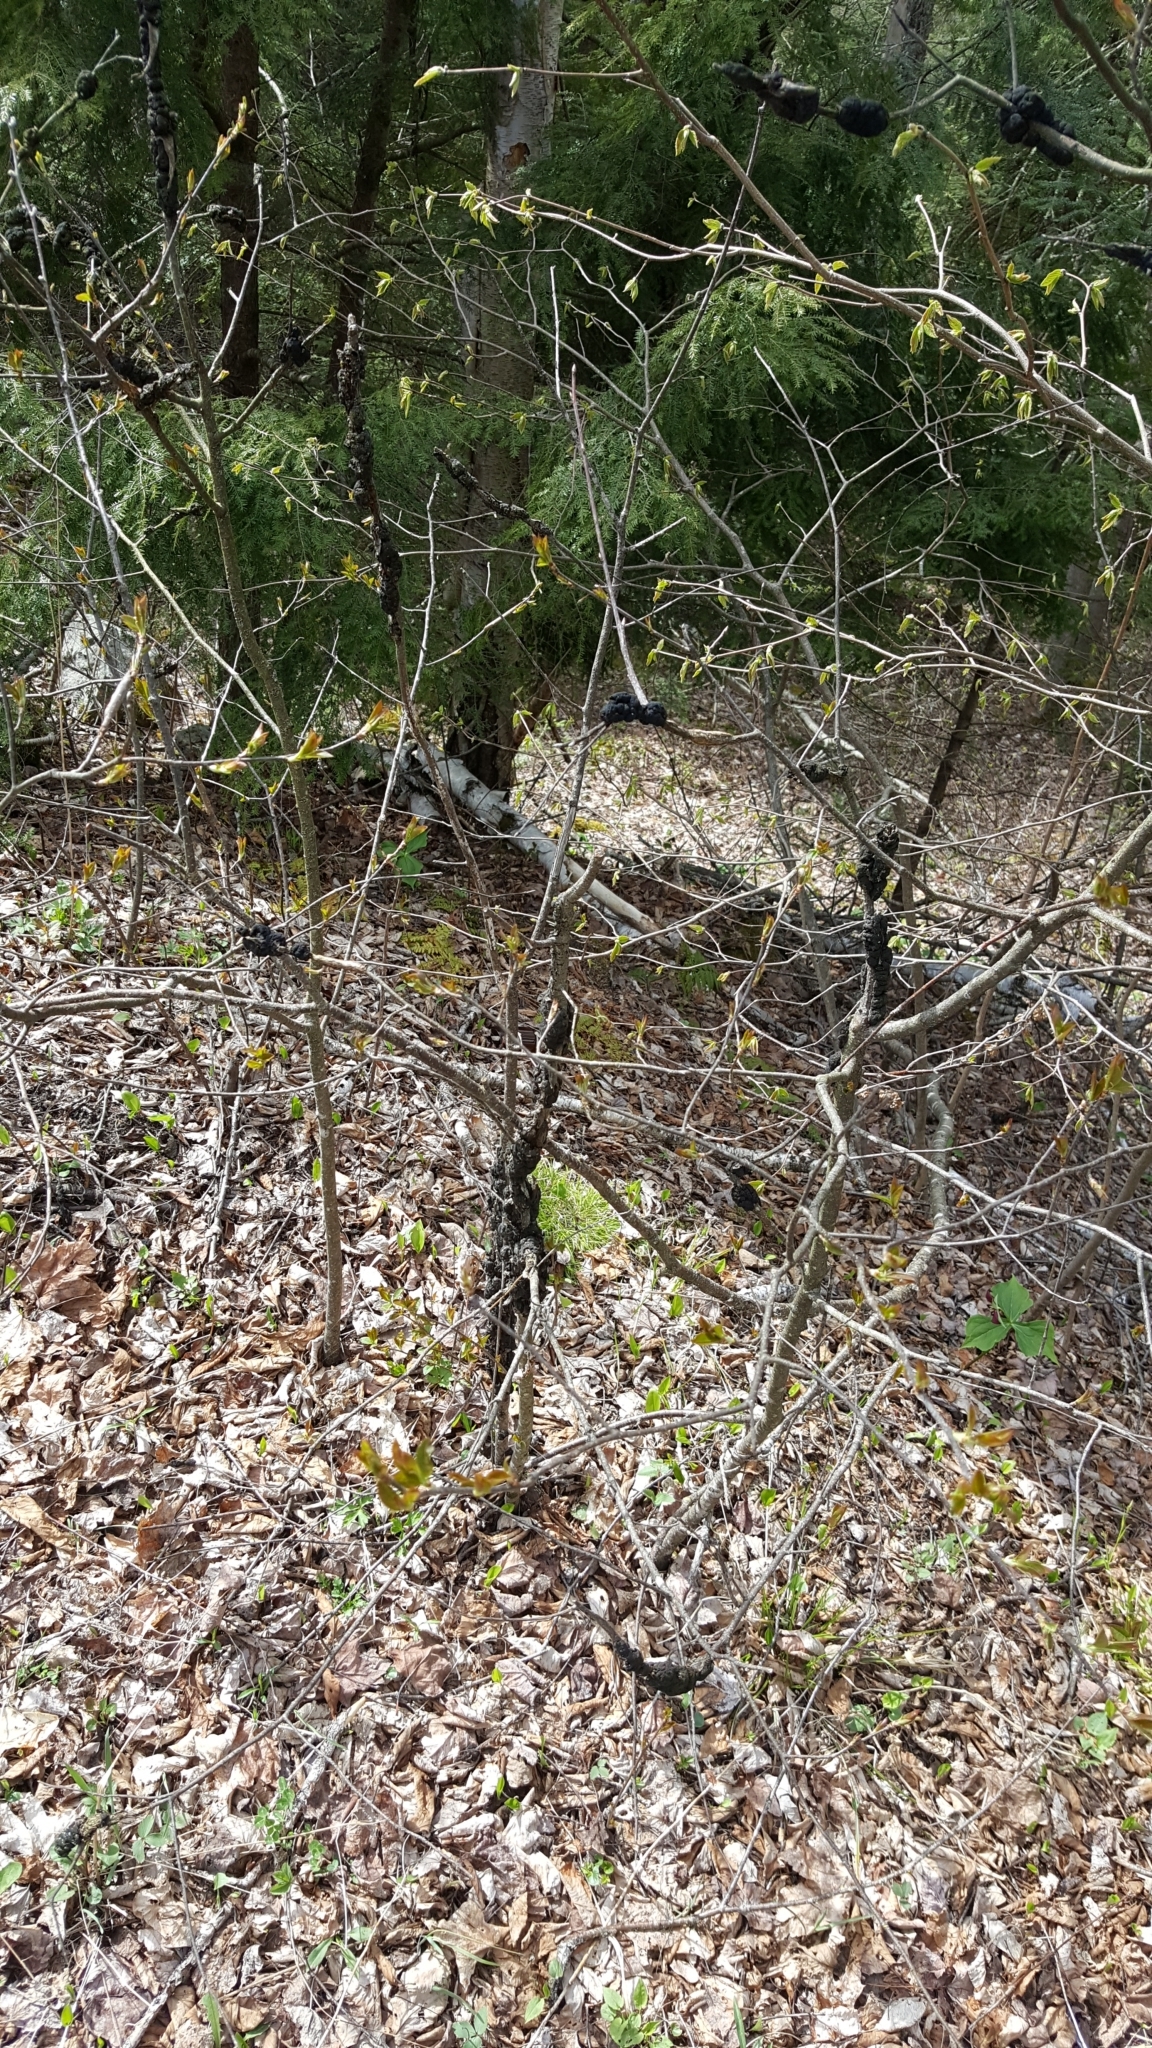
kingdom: Fungi
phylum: Ascomycota
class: Dothideomycetes
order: Venturiales
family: Venturiaceae
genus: Apiosporina
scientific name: Apiosporina morbosa
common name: Black knot
